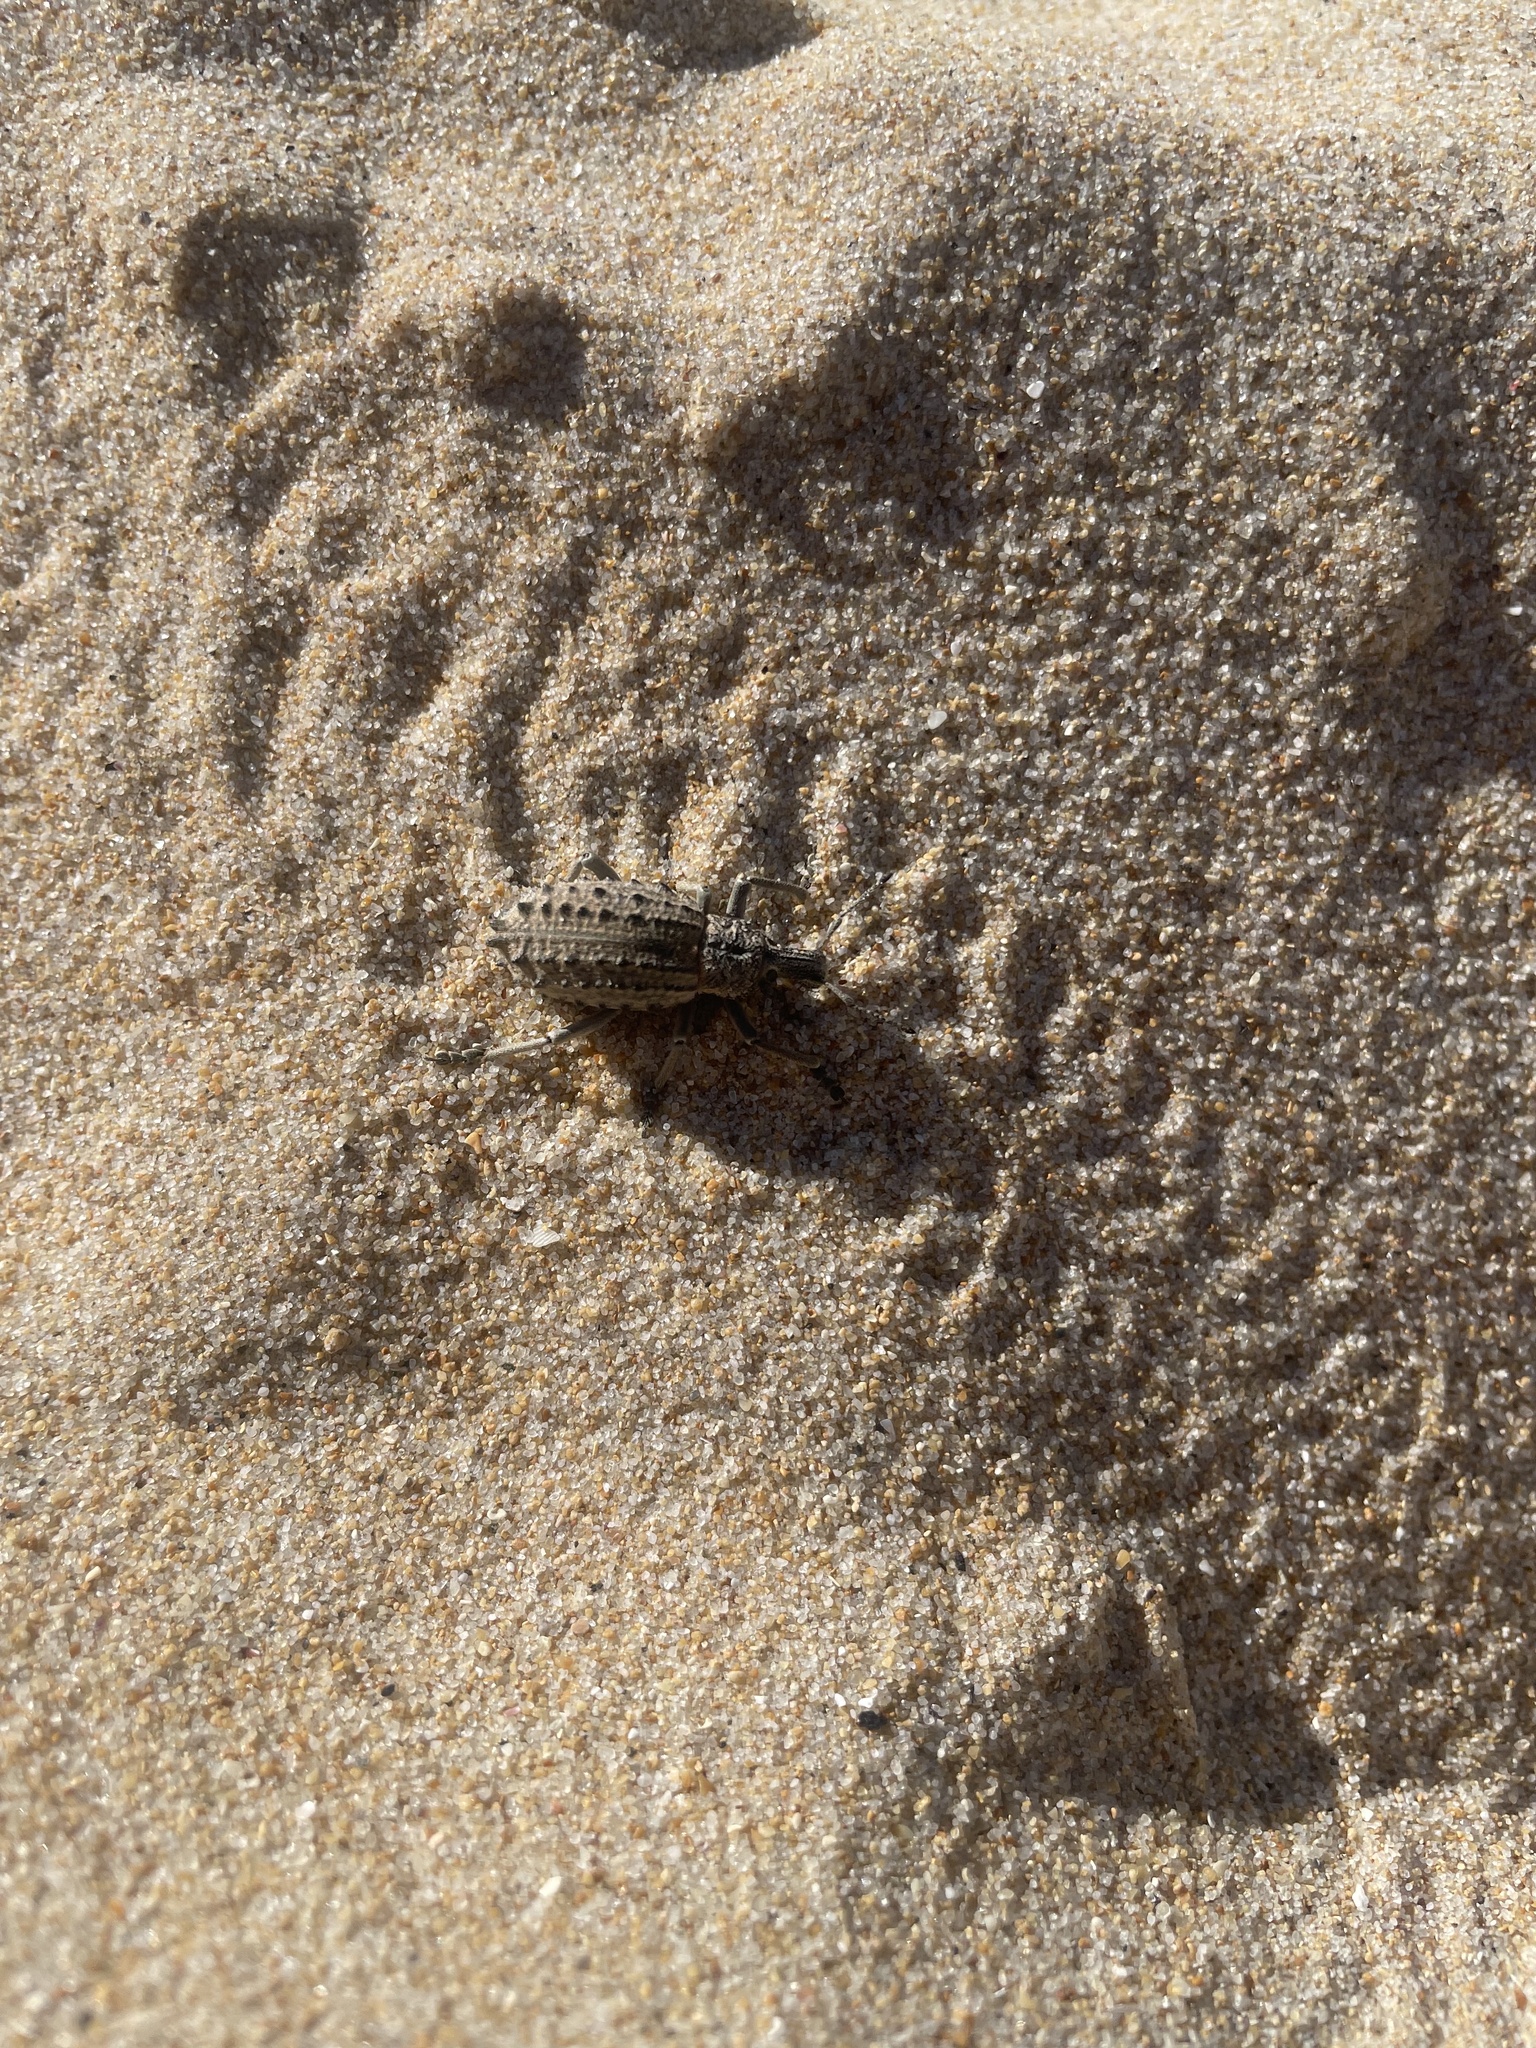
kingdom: Animalia
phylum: Arthropoda
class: Insecta
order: Coleoptera
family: Curculionidae
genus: Leptopius
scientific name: Leptopius duponti
